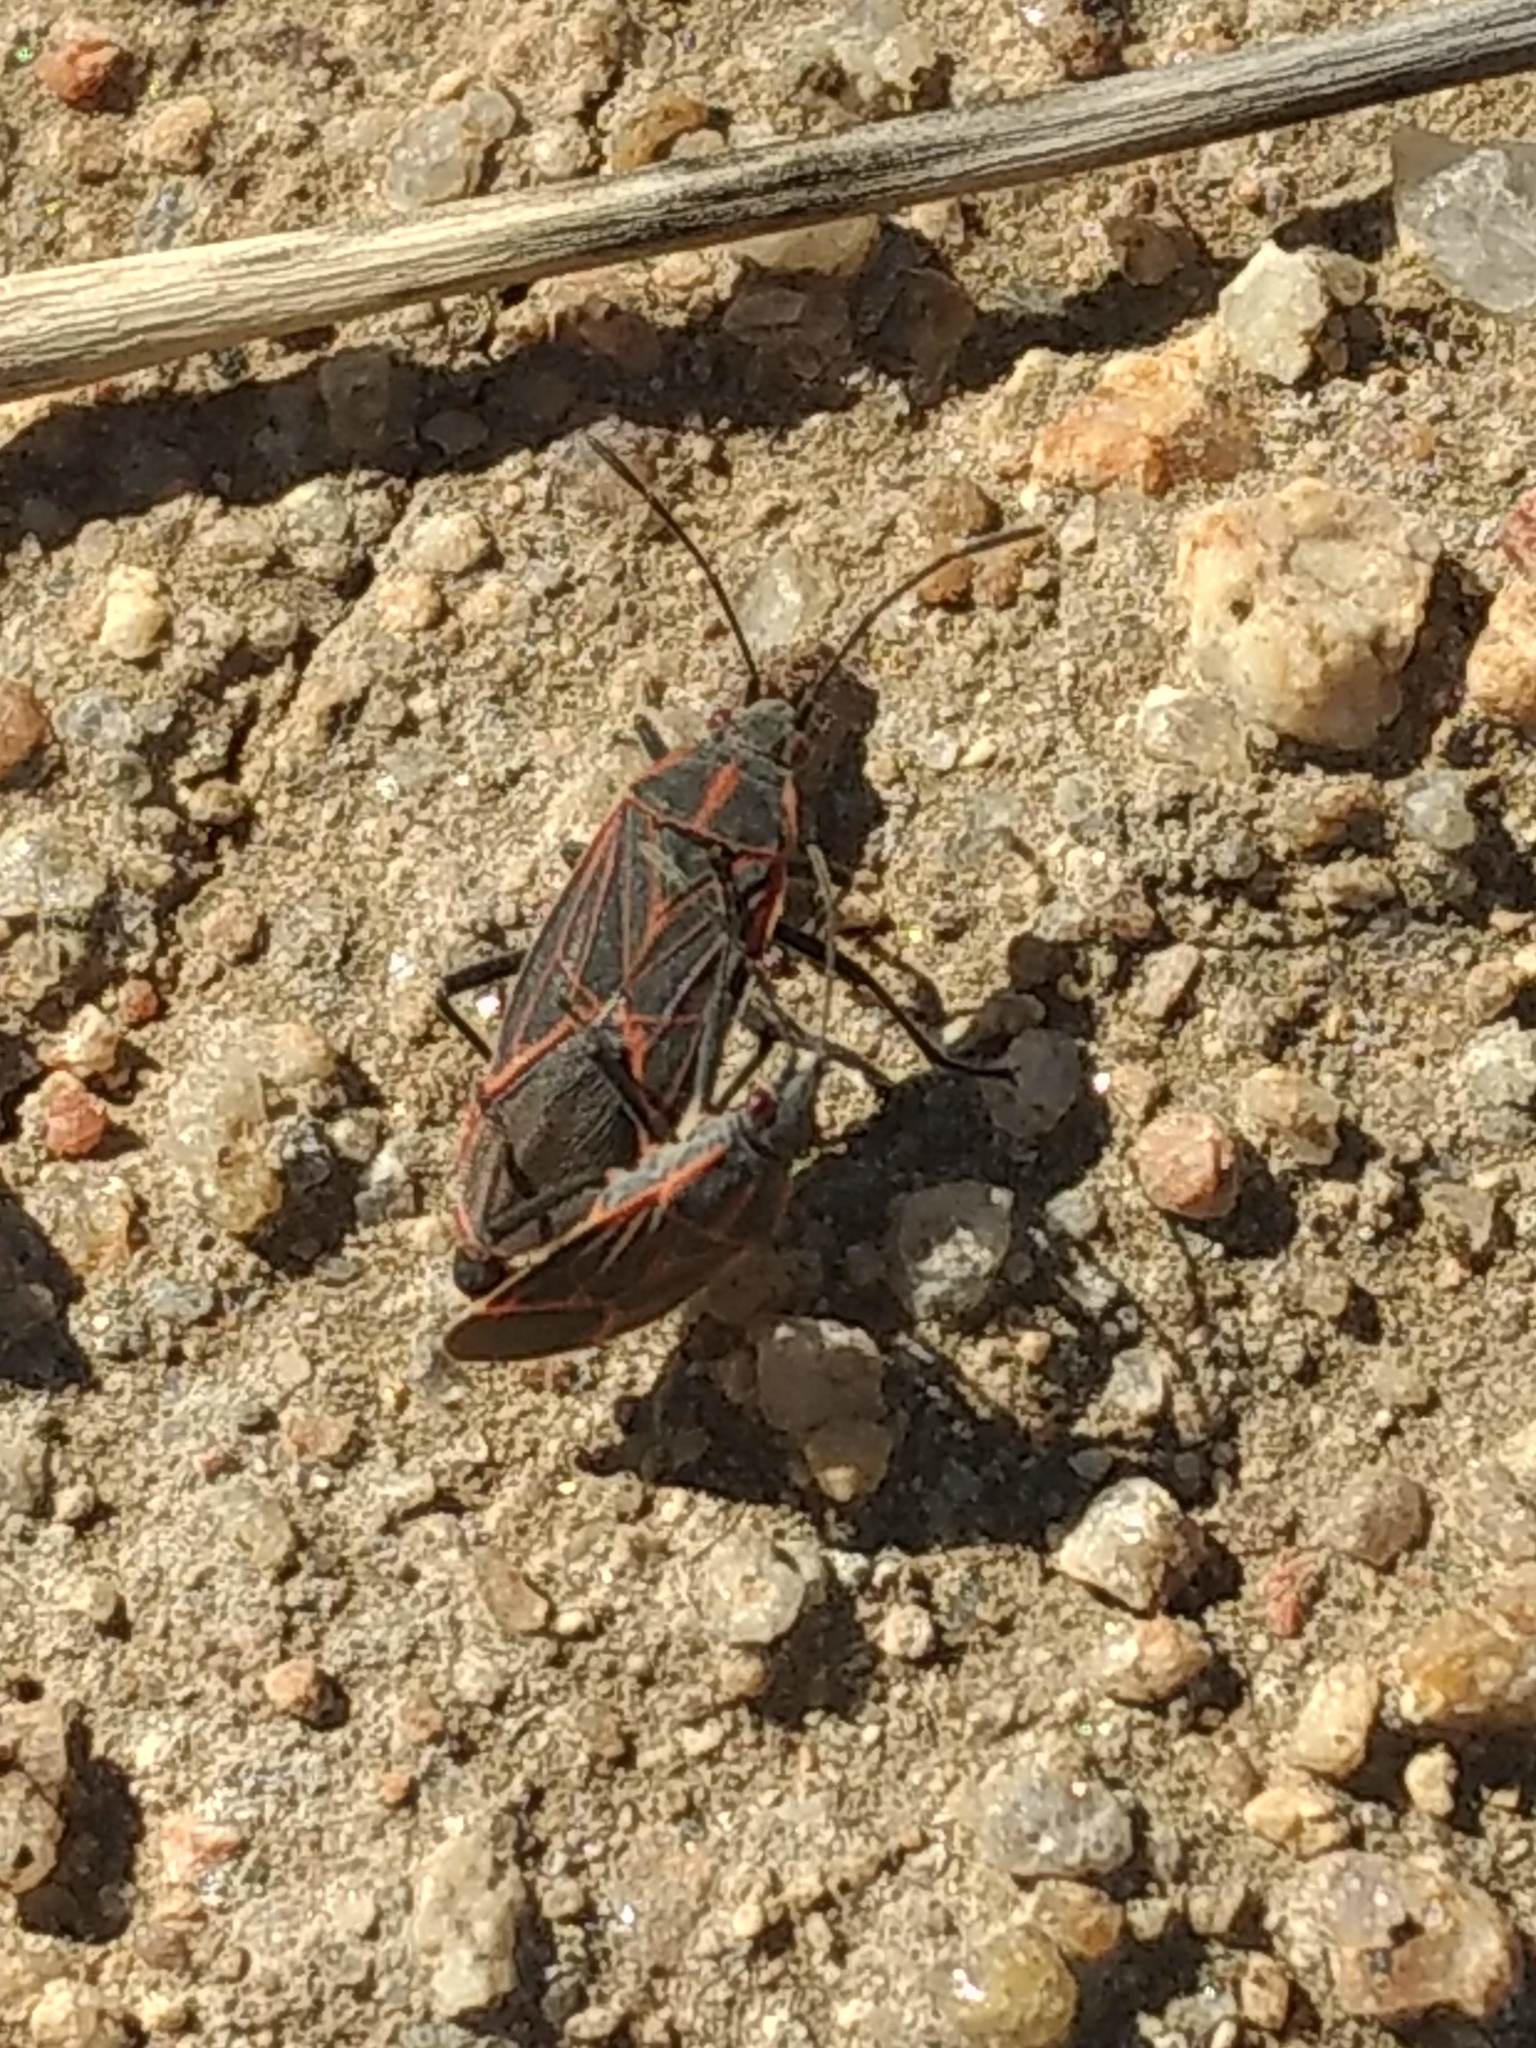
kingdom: Animalia
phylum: Arthropoda
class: Insecta
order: Hemiptera
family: Rhopalidae
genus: Boisea
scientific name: Boisea rubrolineata
